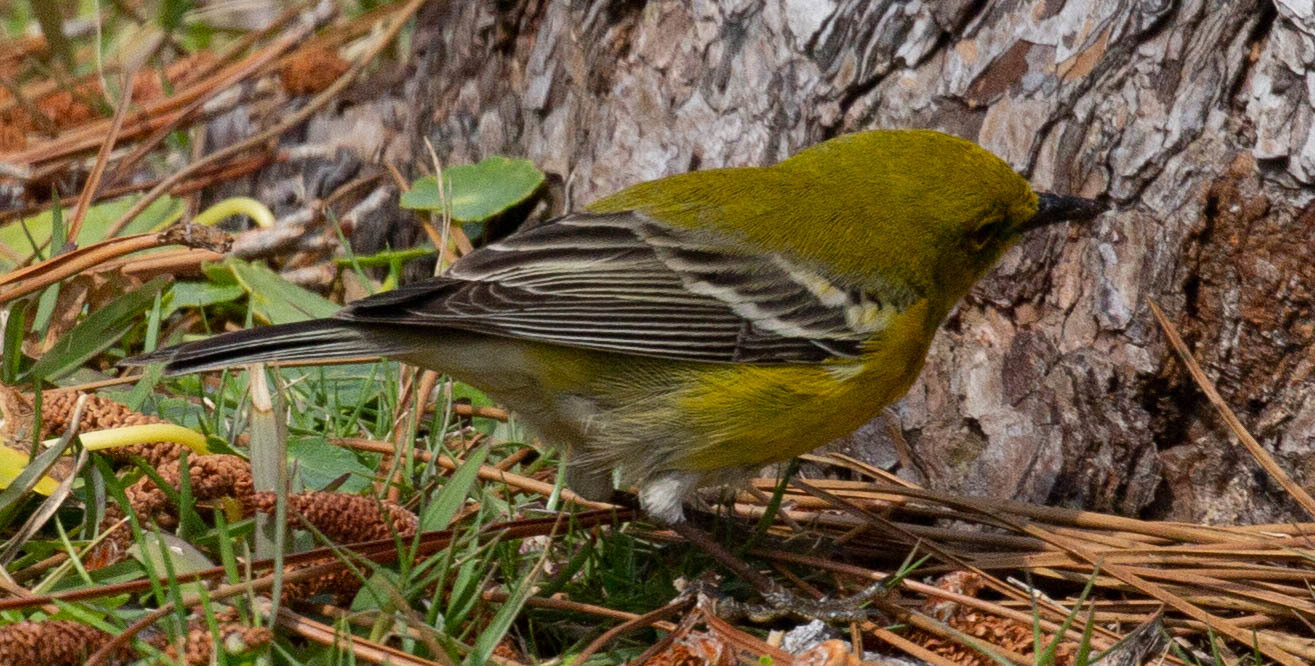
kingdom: Animalia
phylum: Chordata
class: Aves
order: Passeriformes
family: Parulidae
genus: Setophaga
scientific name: Setophaga pinus
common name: Pine warbler
